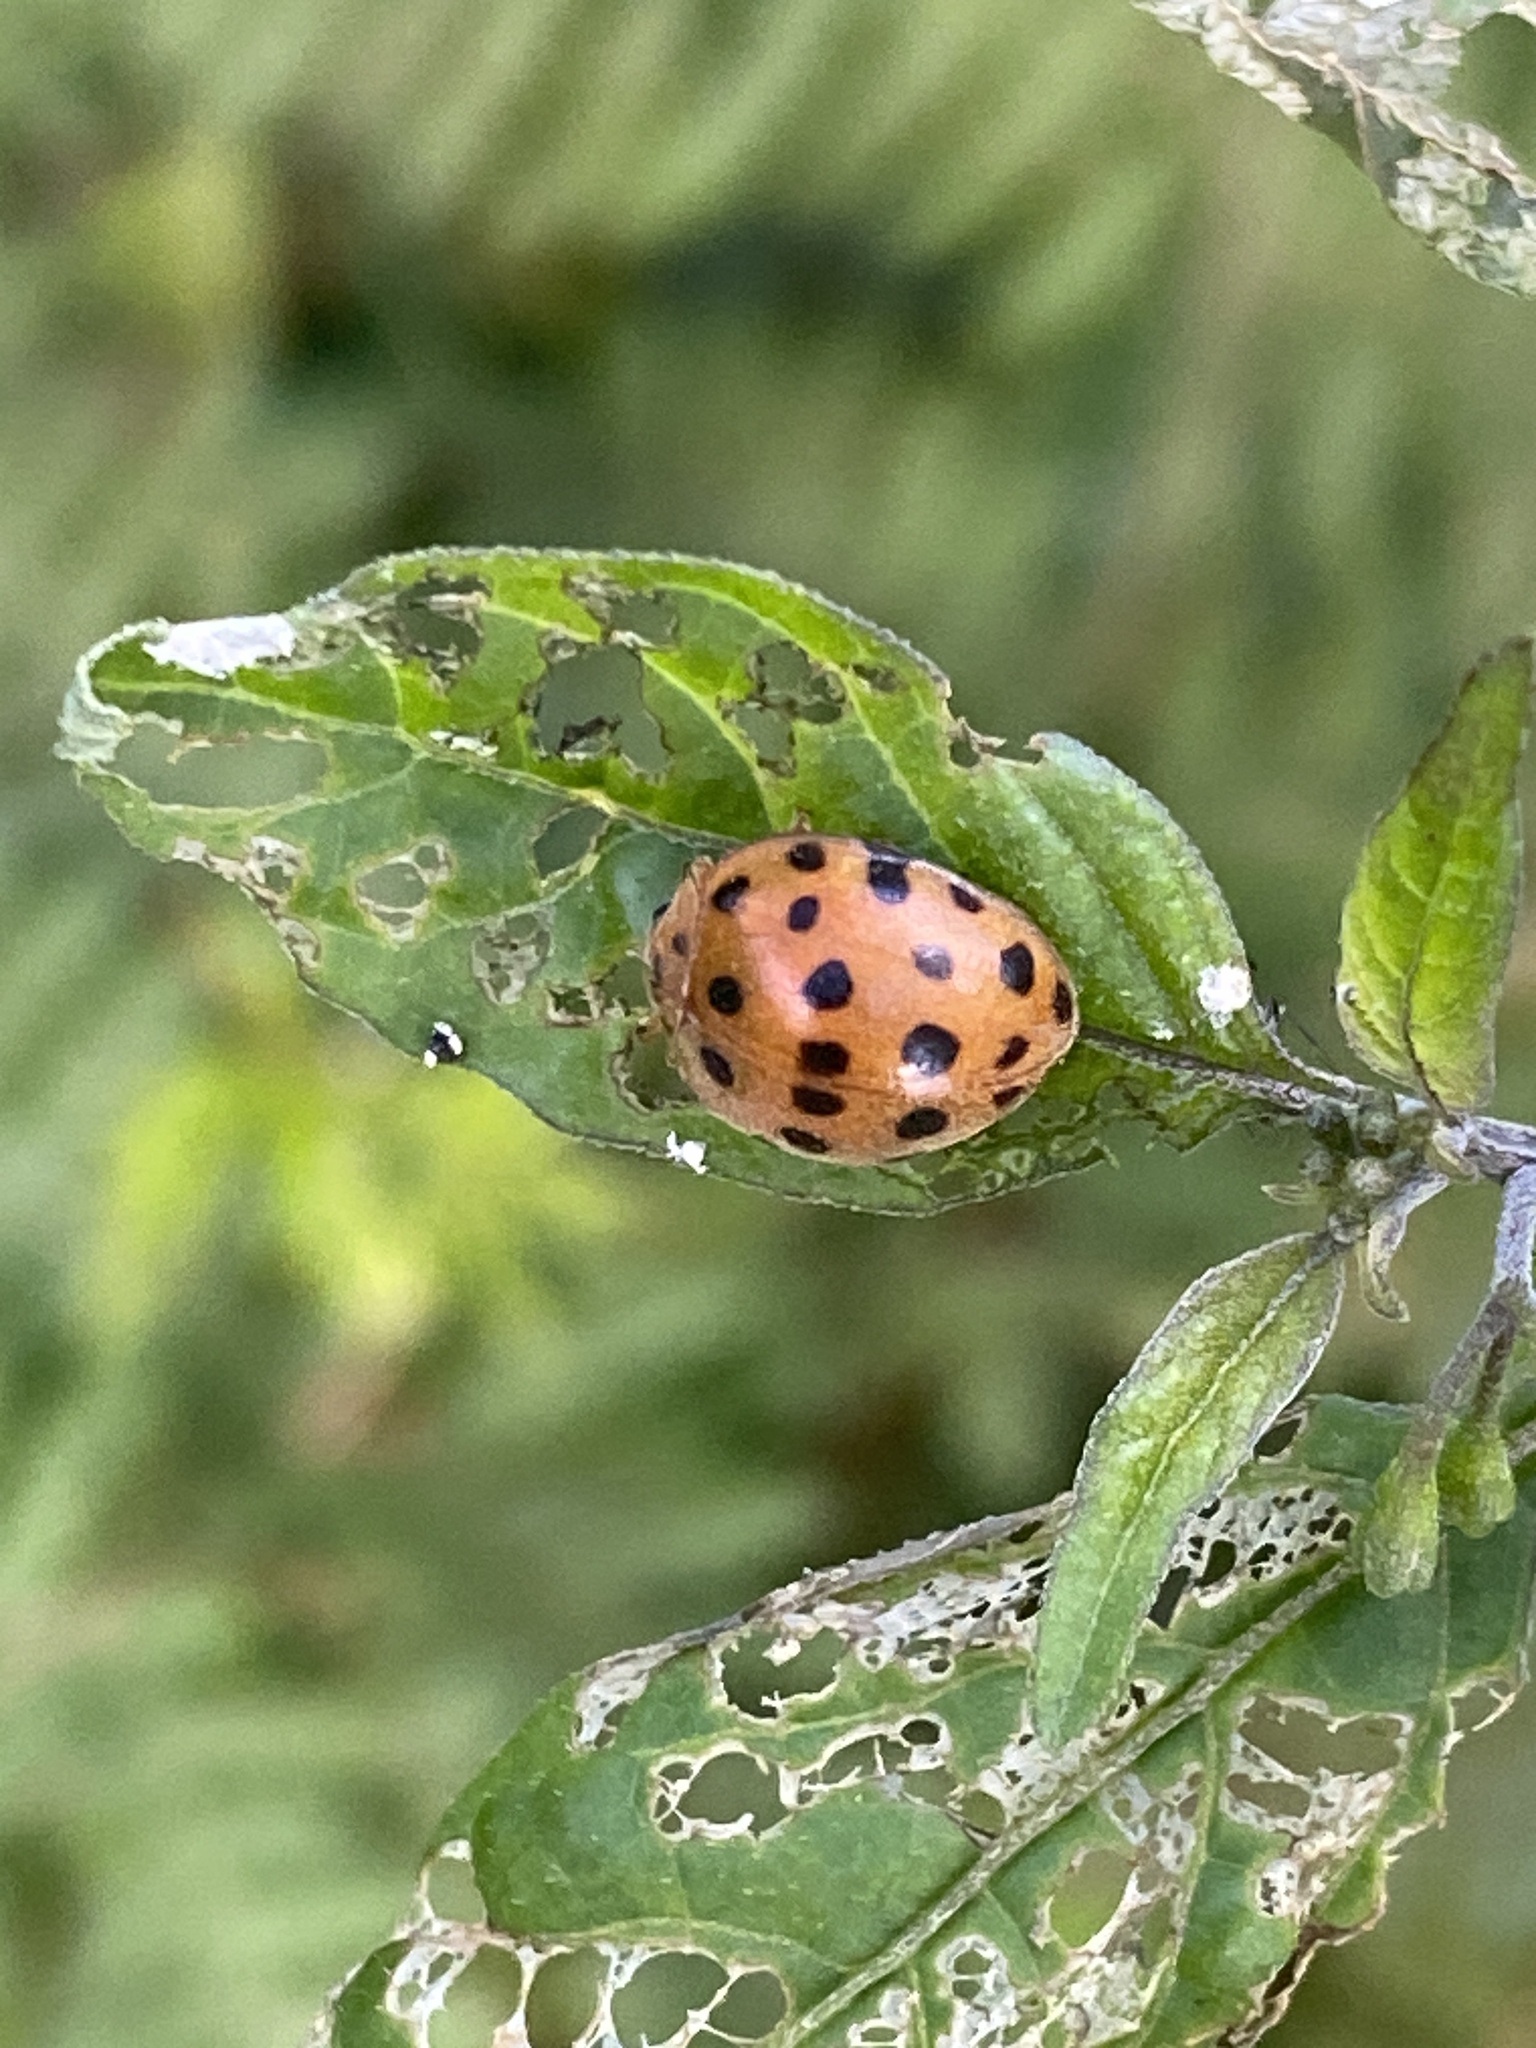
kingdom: Animalia
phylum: Arthropoda
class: Insecta
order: Coleoptera
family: Coccinellidae
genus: Henosepilachna
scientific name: Henosepilachna vigintioctopunctata
